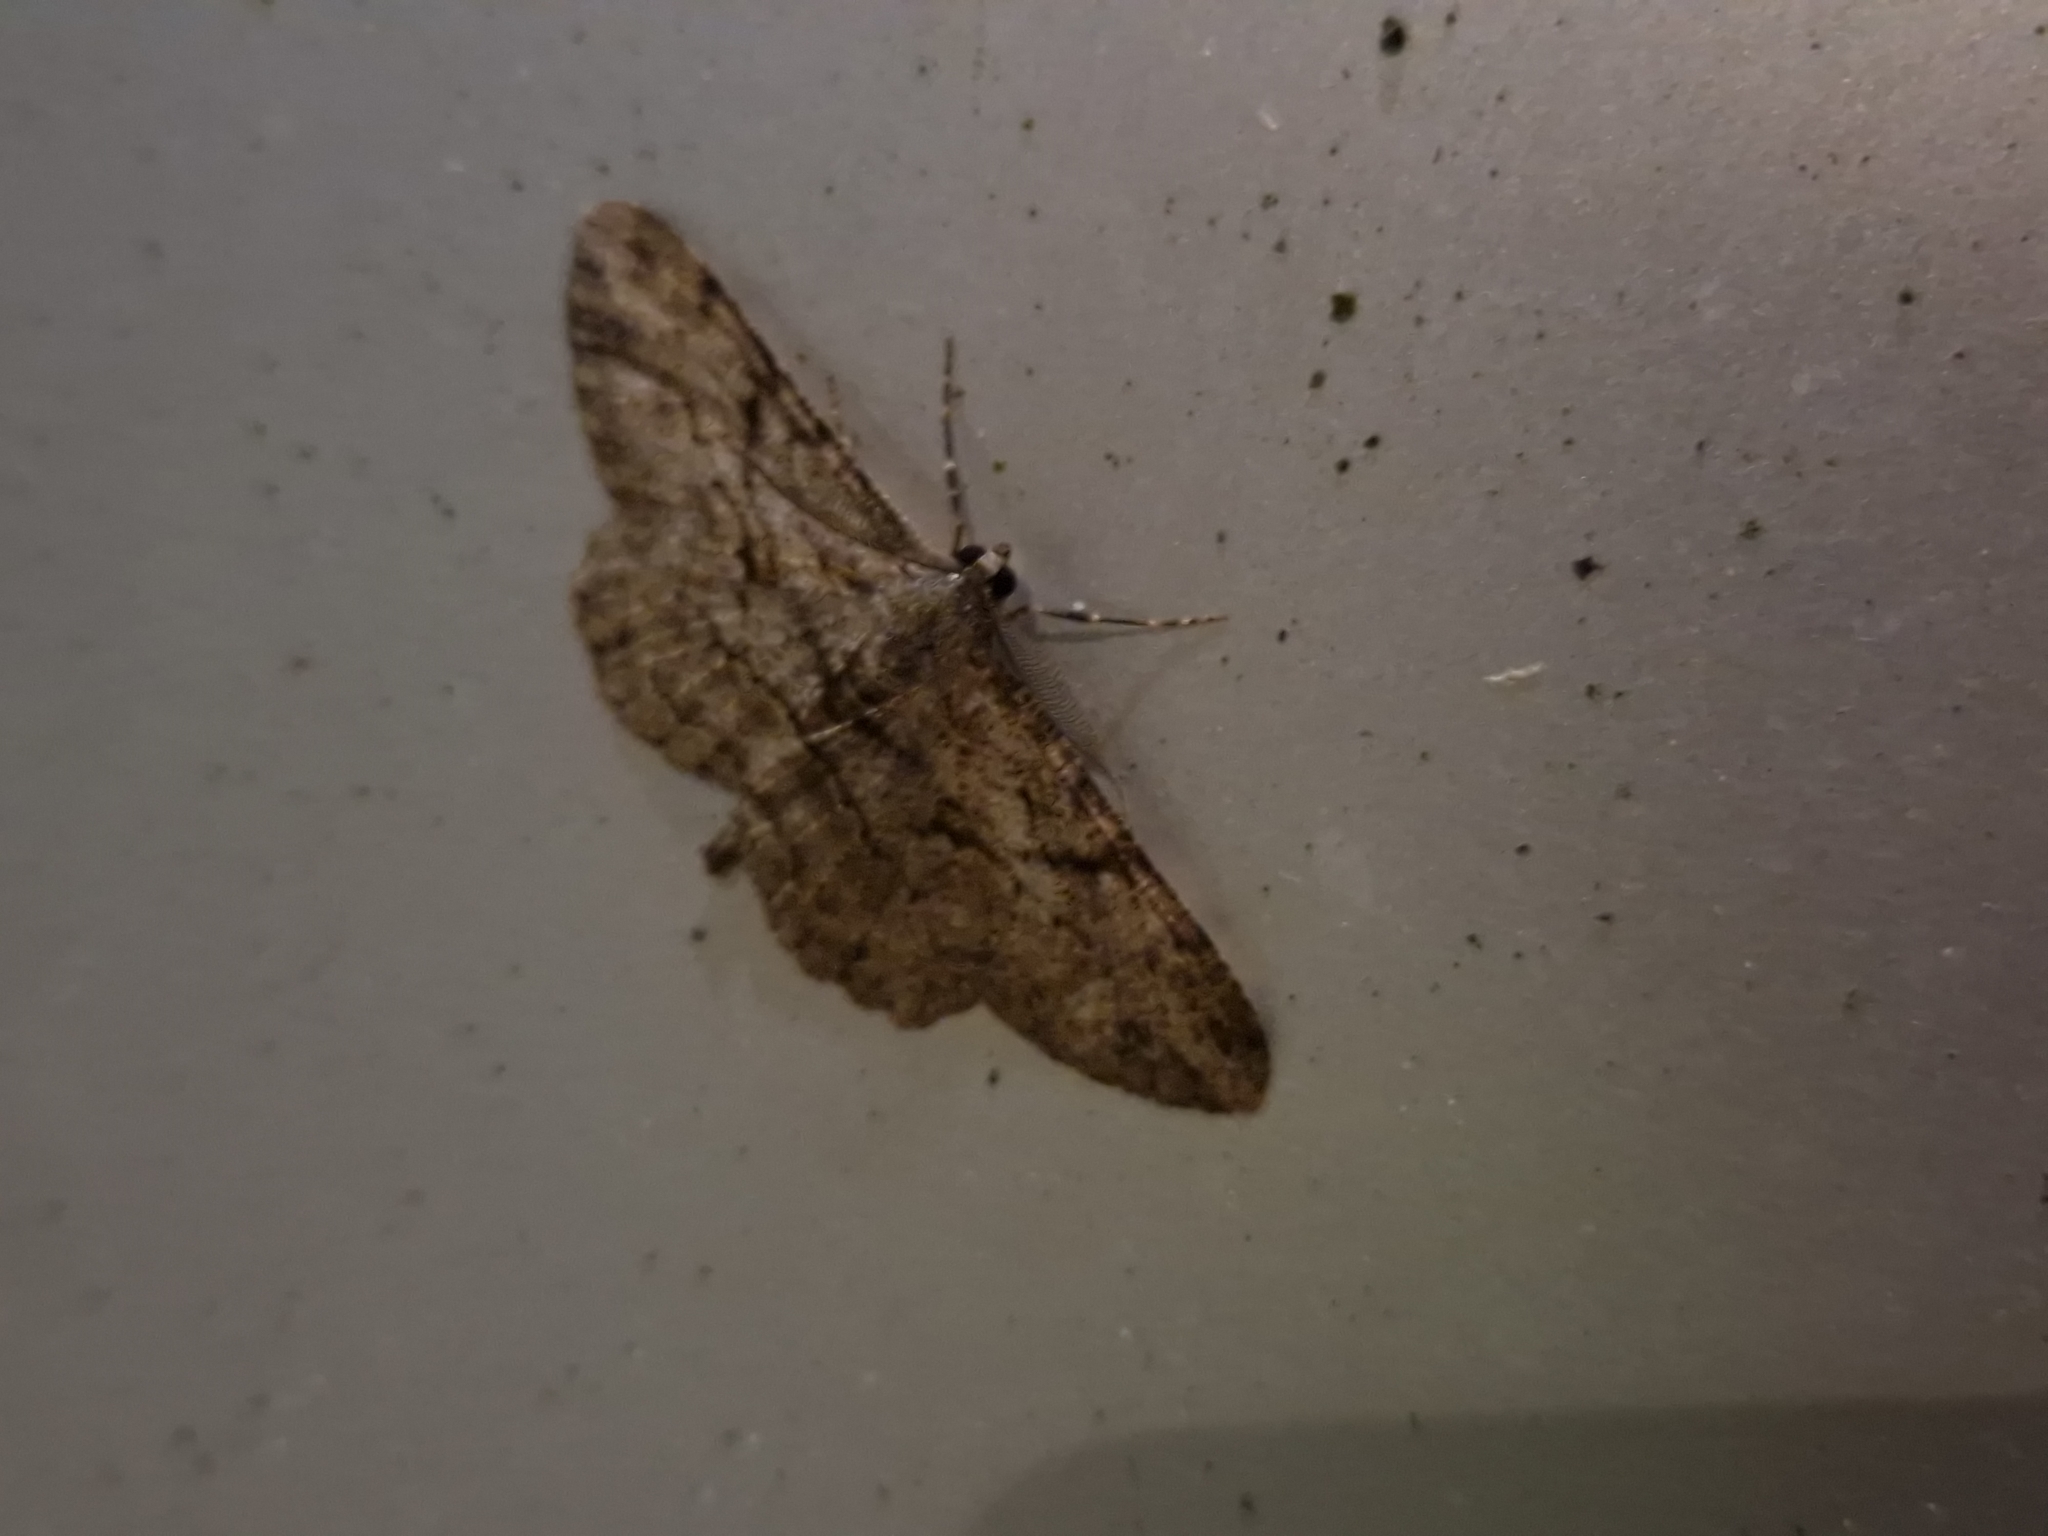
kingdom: Animalia
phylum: Arthropoda
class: Insecta
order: Lepidoptera
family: Geometridae
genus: Peribatodes
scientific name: Peribatodes rhomboidaria
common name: Willow beauty
